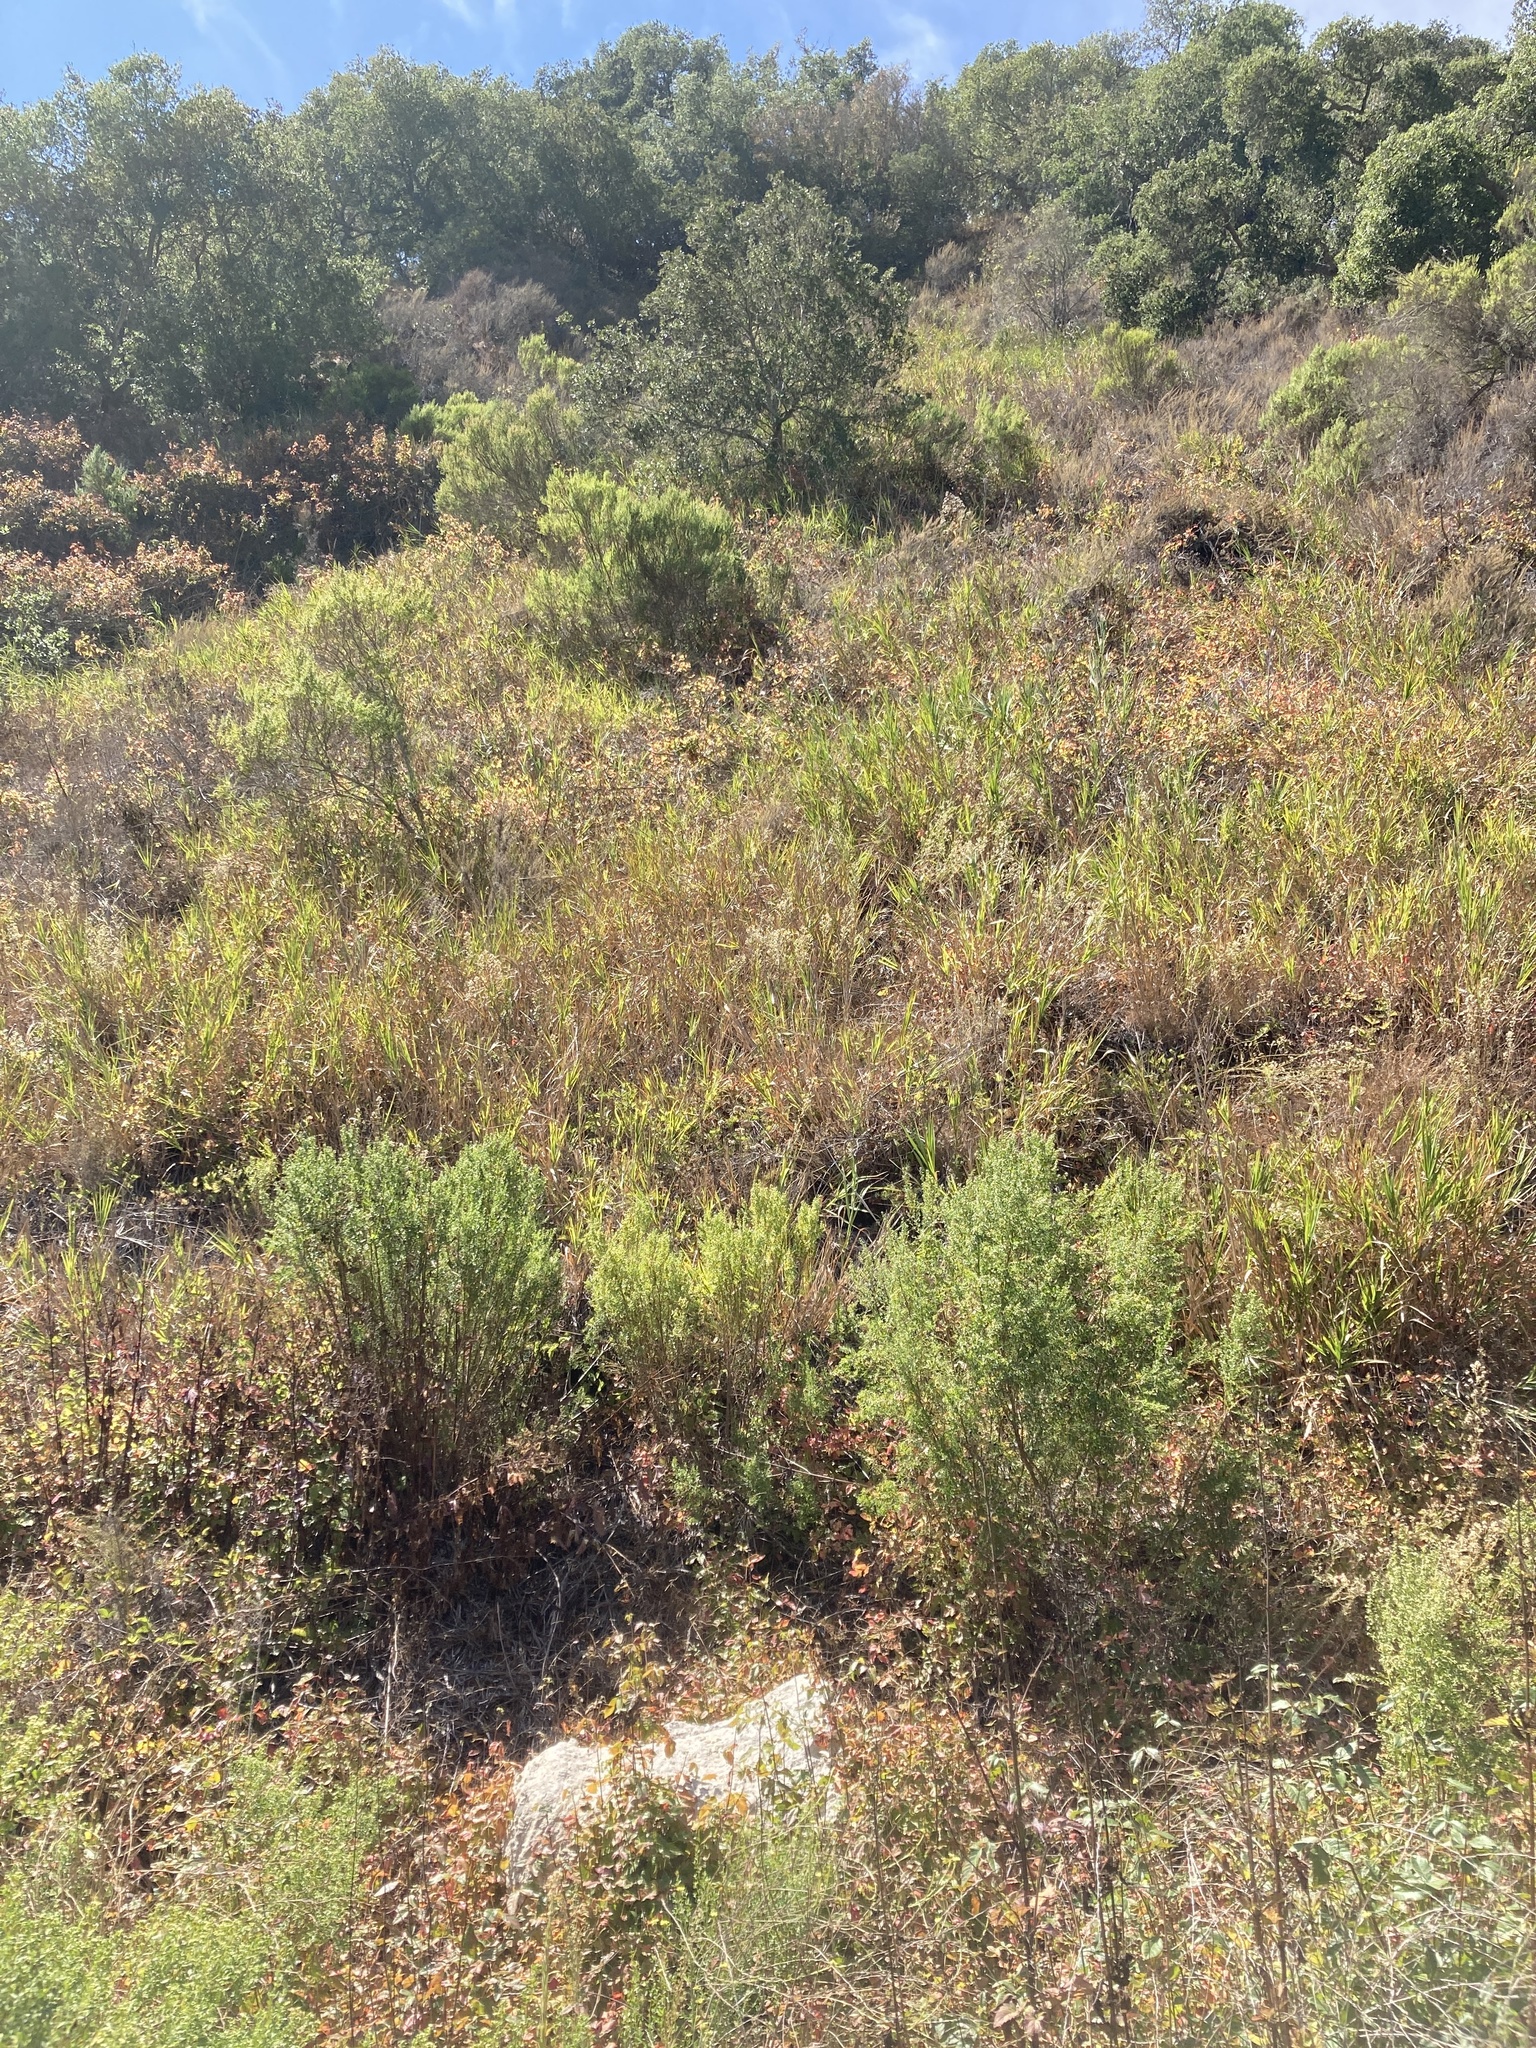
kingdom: Plantae
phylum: Tracheophyta
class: Liliopsida
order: Poales
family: Poaceae
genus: Leymus
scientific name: Leymus condensatus
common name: Giant wild rye
